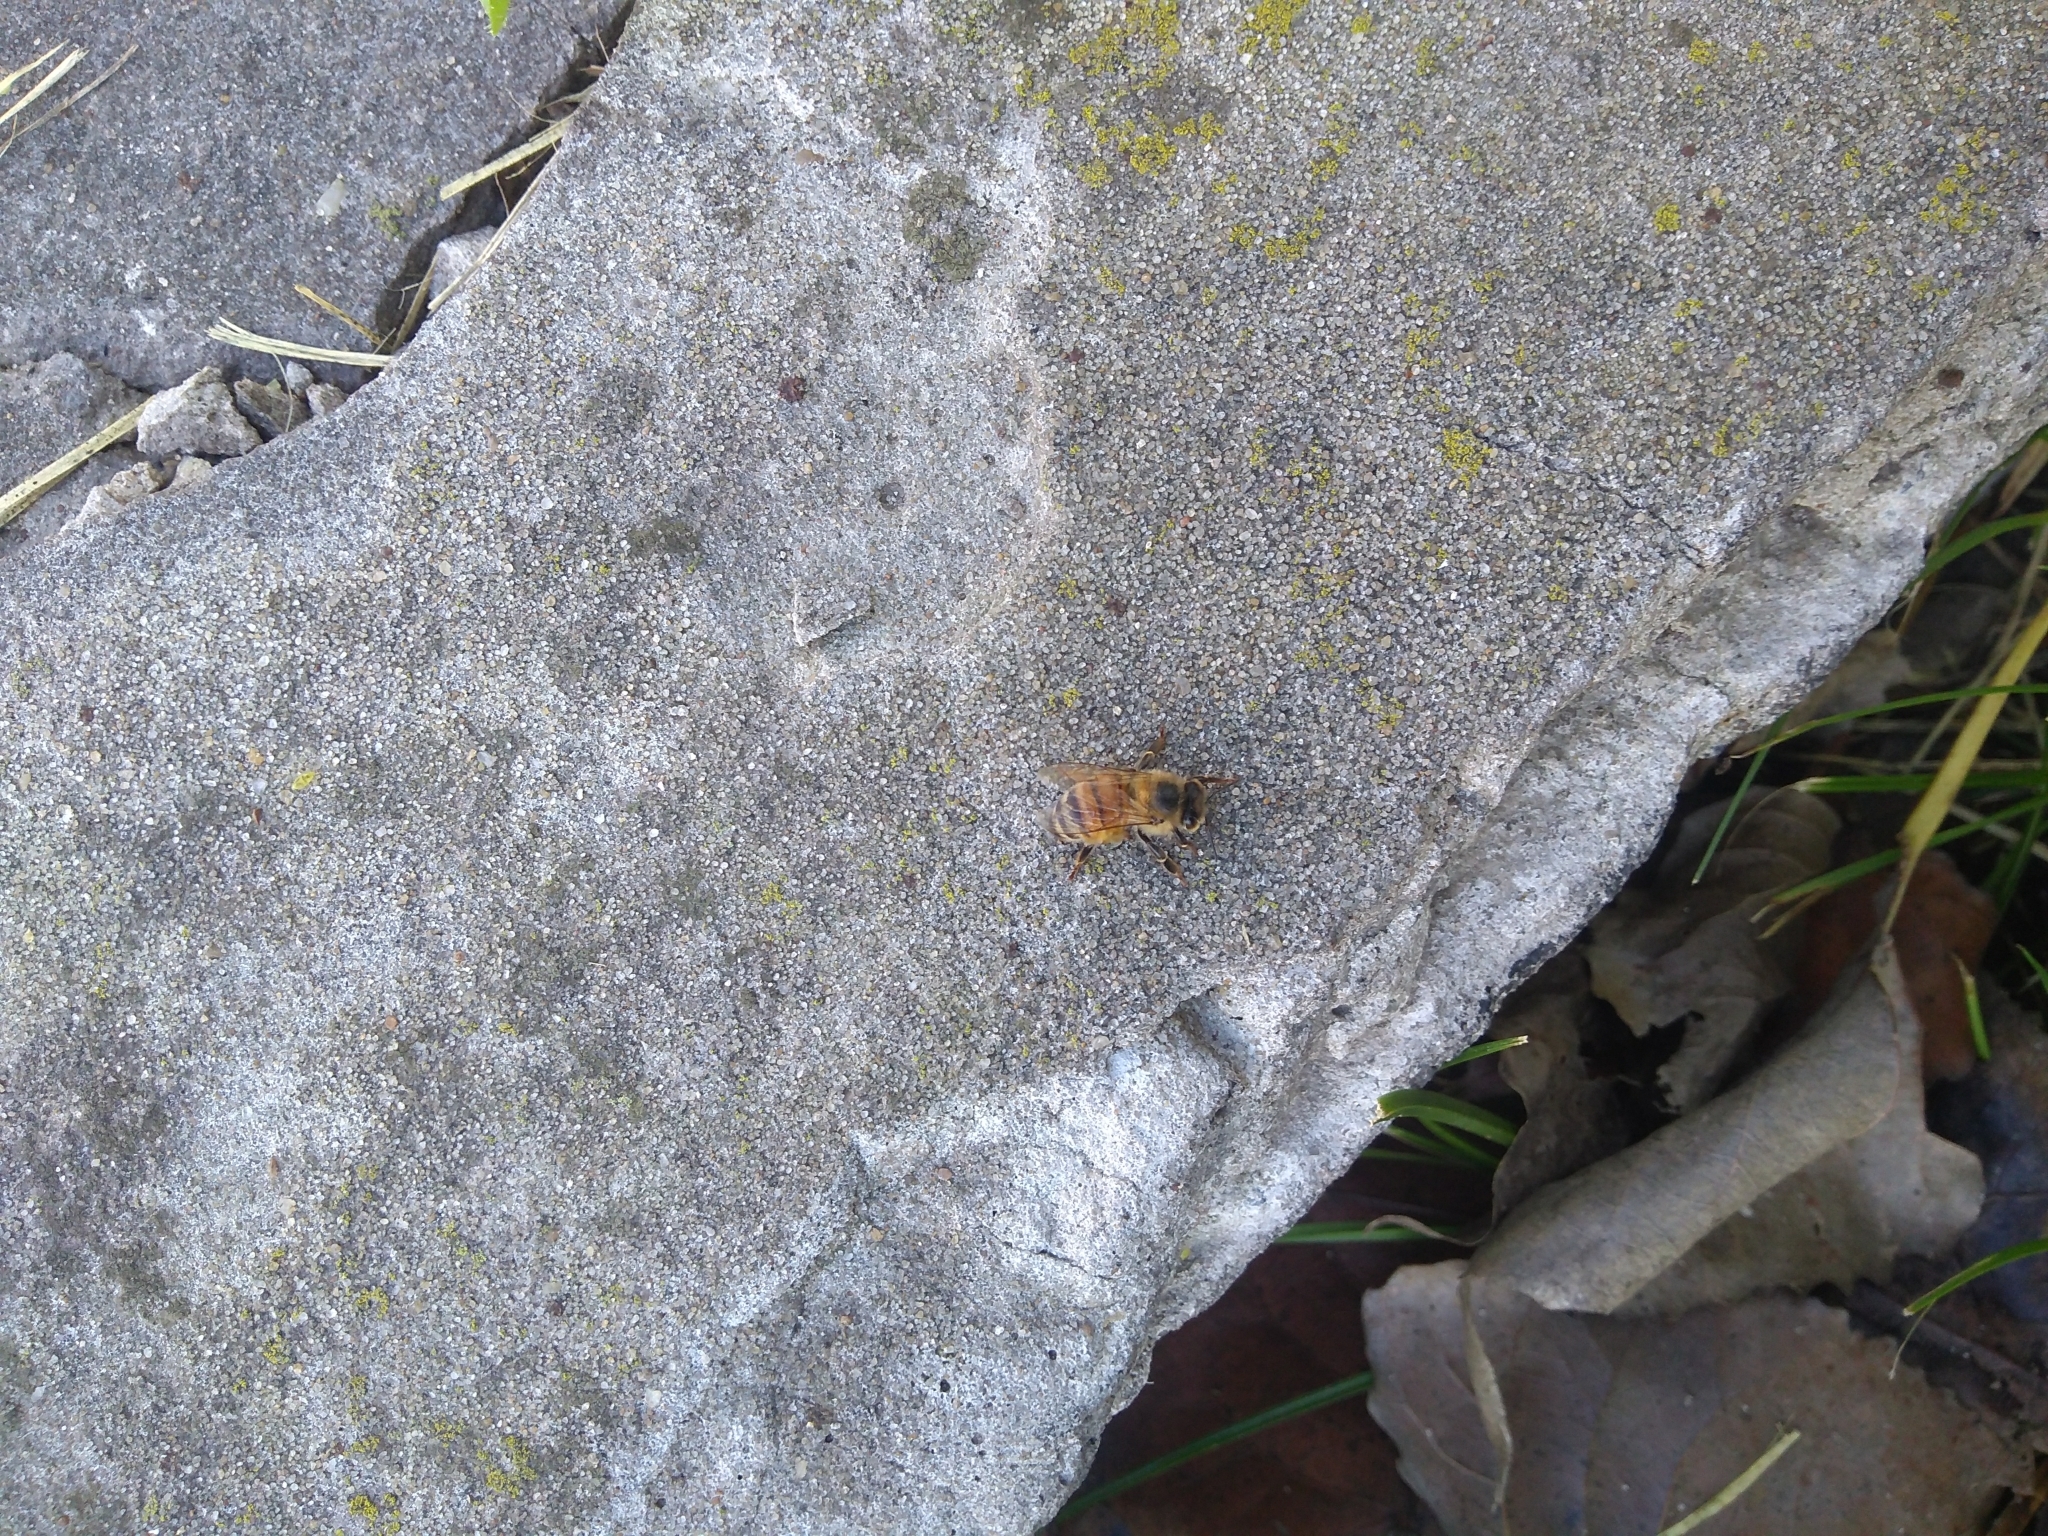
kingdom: Animalia
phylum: Arthropoda
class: Insecta
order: Hymenoptera
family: Apidae
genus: Apis
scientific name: Apis mellifera
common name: Honey bee
